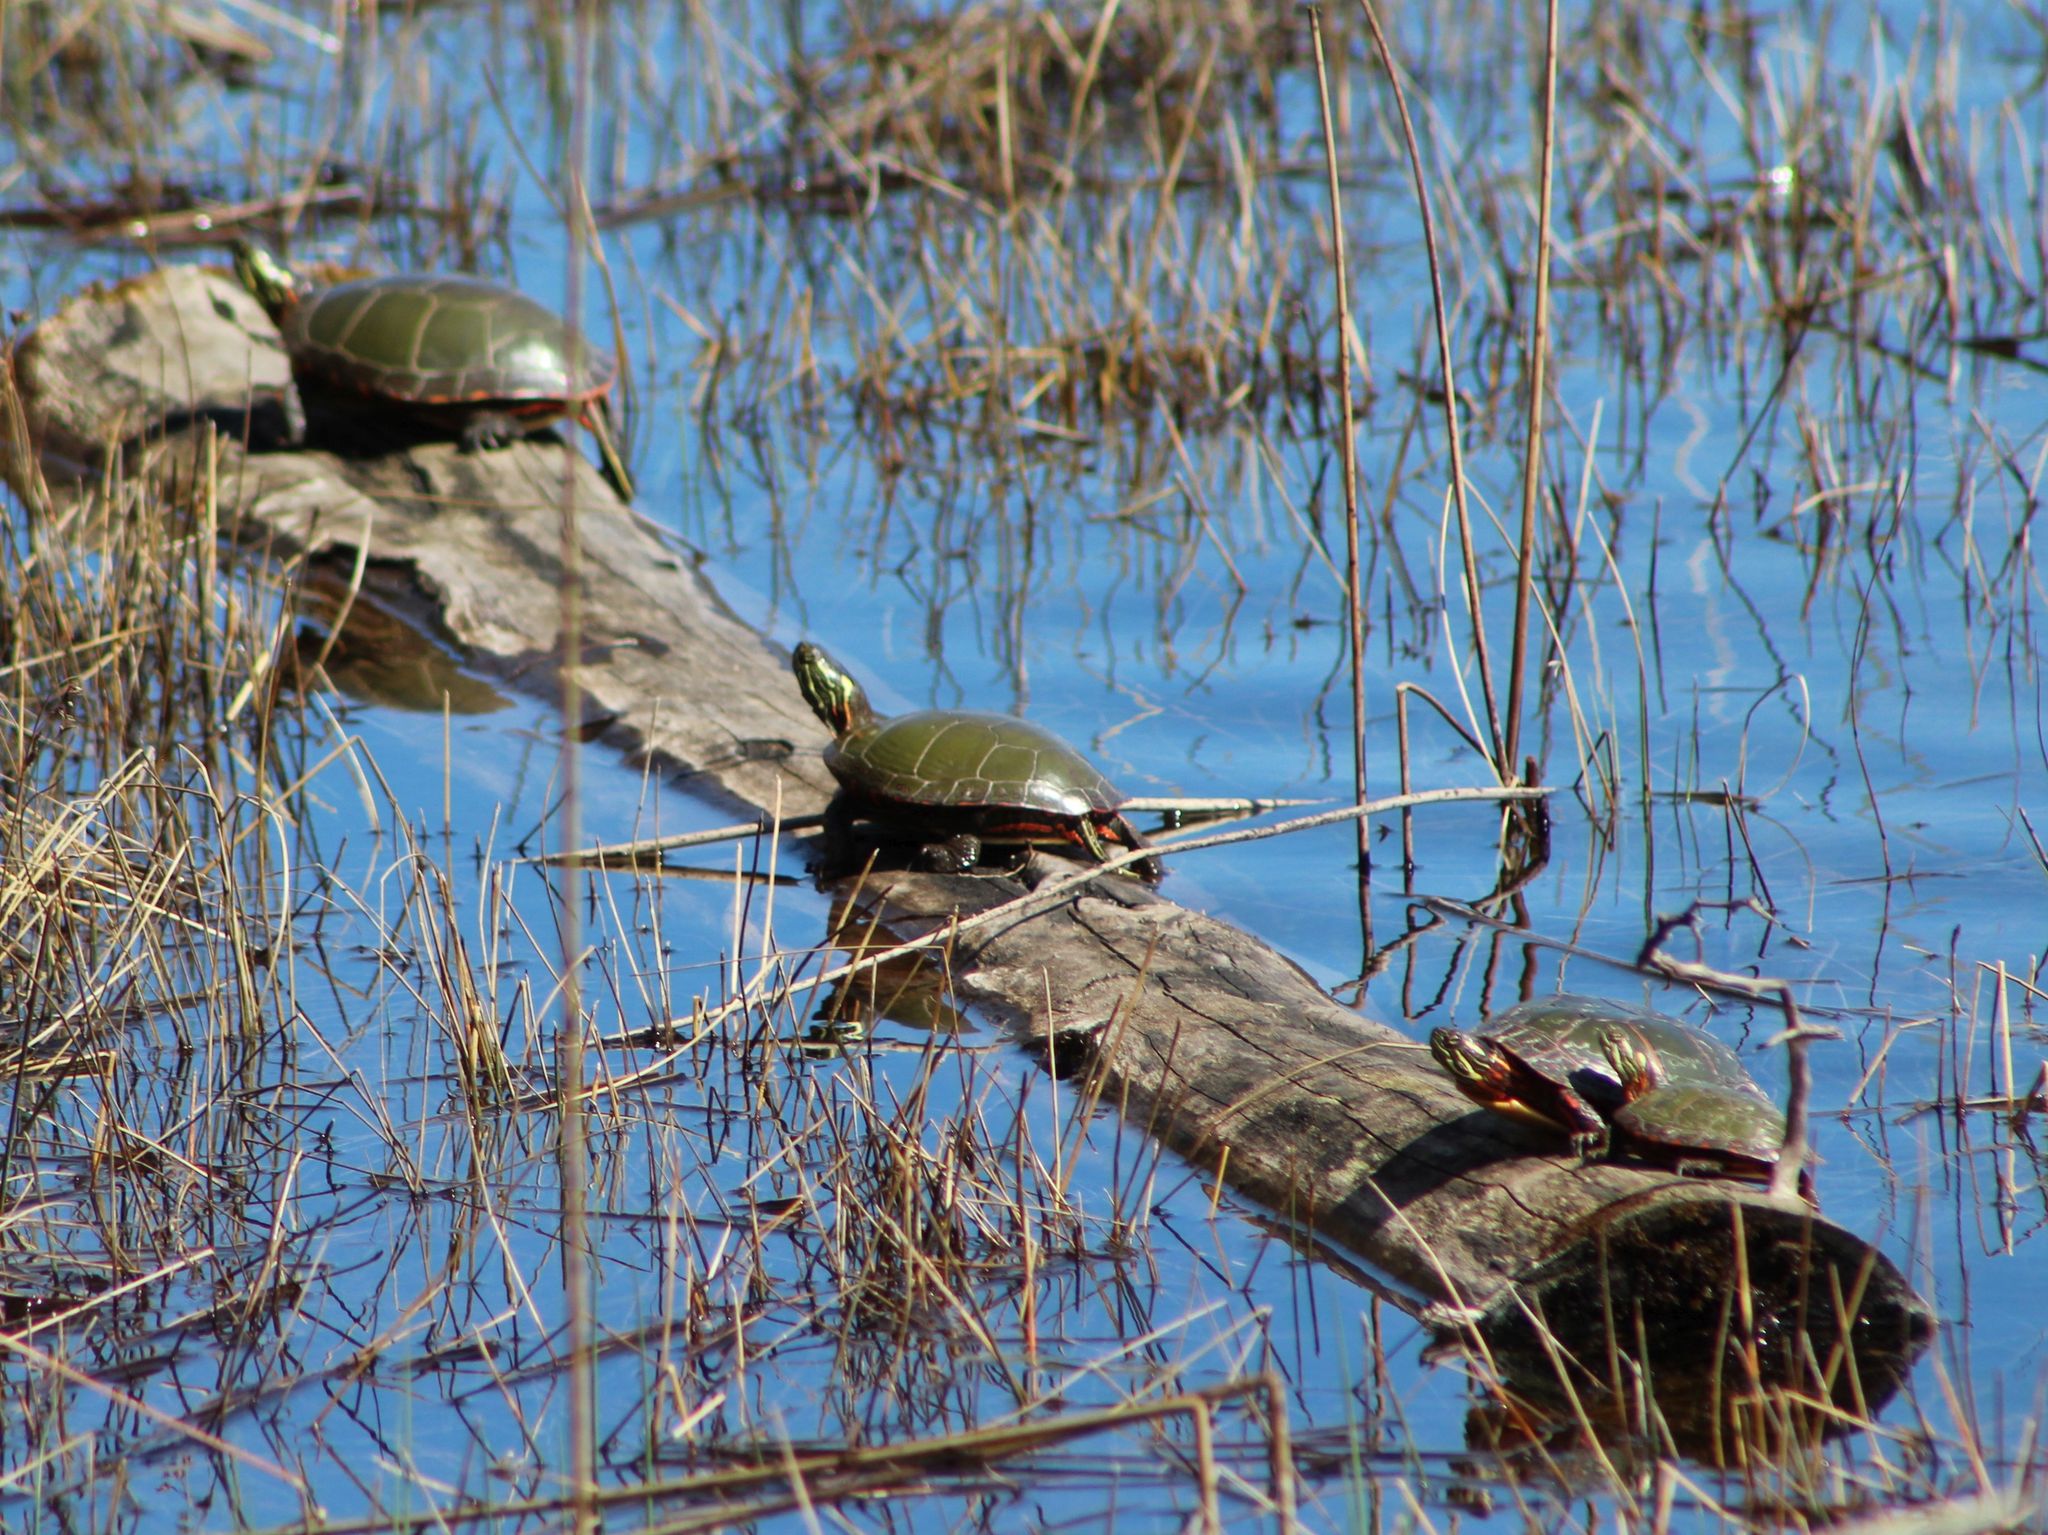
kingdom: Animalia
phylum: Chordata
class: Testudines
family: Emydidae
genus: Chrysemys
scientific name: Chrysemys picta
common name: Painted turtle
